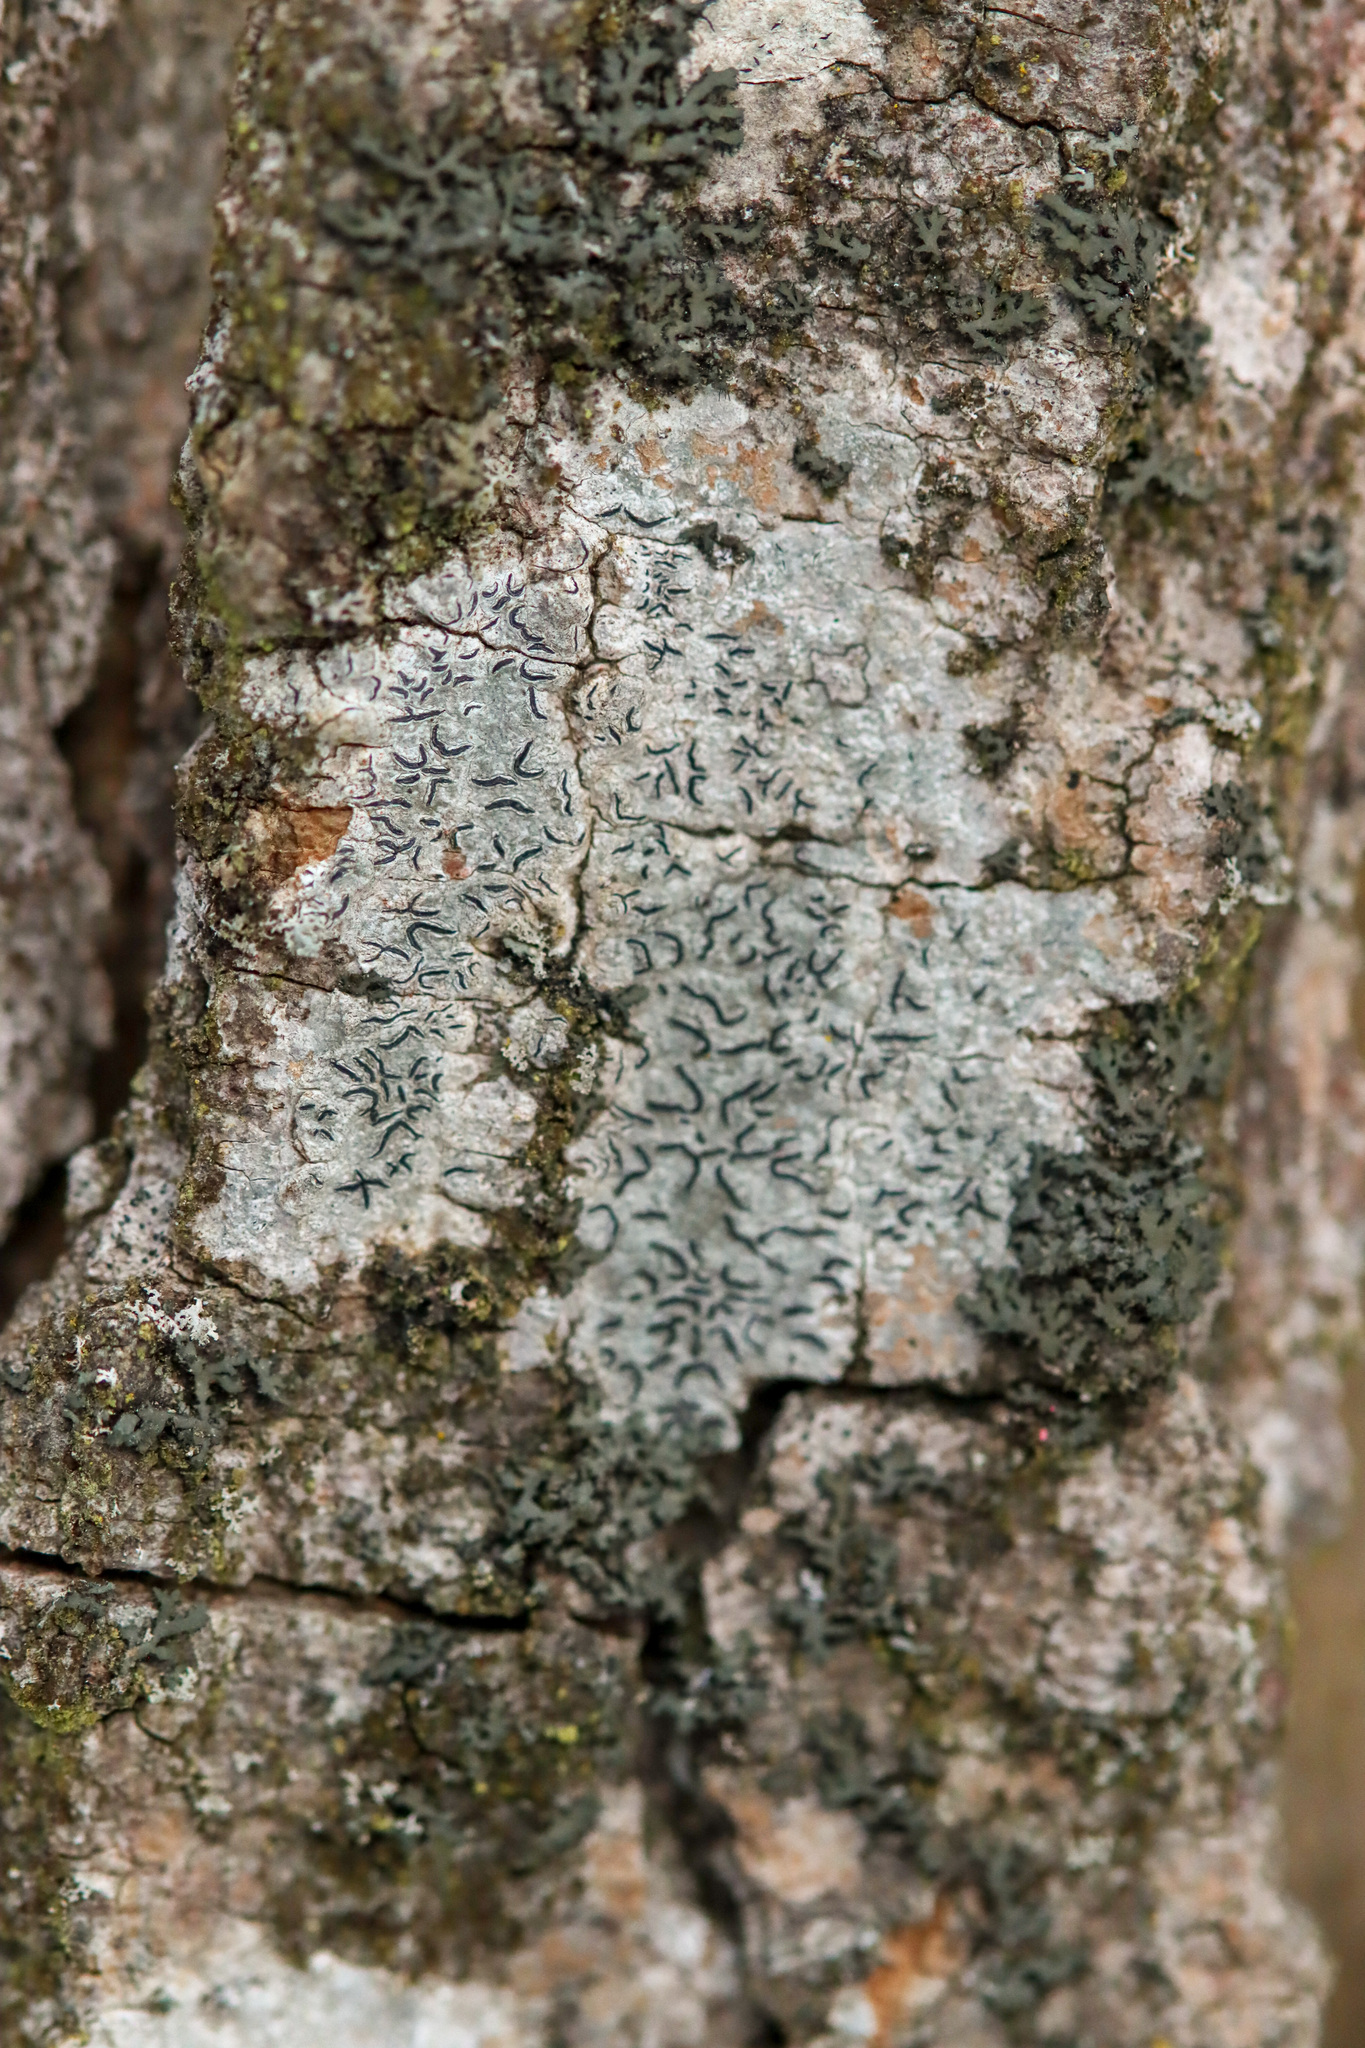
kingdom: Fungi
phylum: Ascomycota
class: Lecanoromycetes
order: Ostropales
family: Graphidaceae
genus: Graphis
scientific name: Graphis scripta
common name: Script lichen
